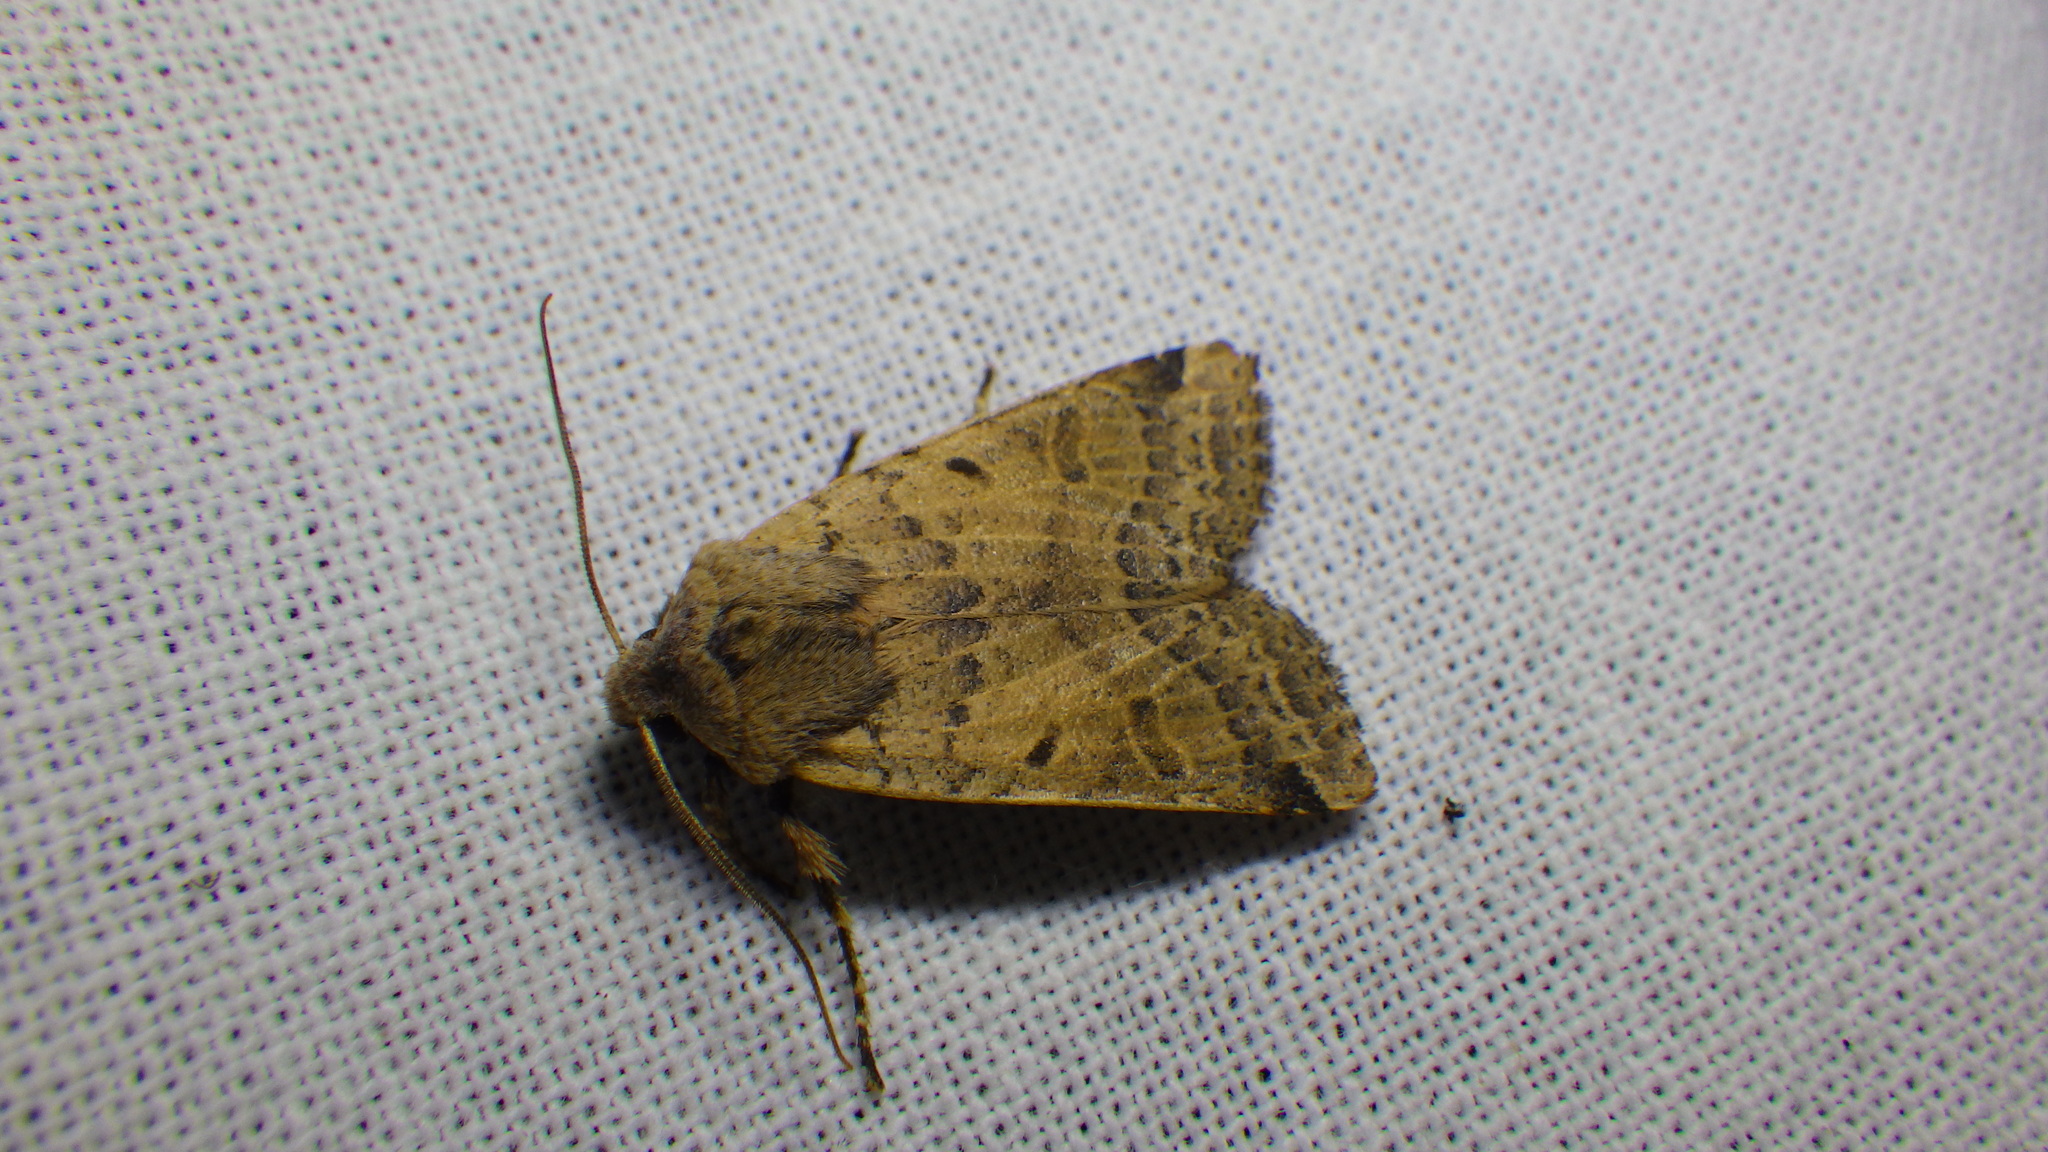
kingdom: Animalia
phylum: Arthropoda
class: Insecta
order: Lepidoptera
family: Noctuidae
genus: Agrochola
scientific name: Agrochola lychnidis
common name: Beaded chestnut
